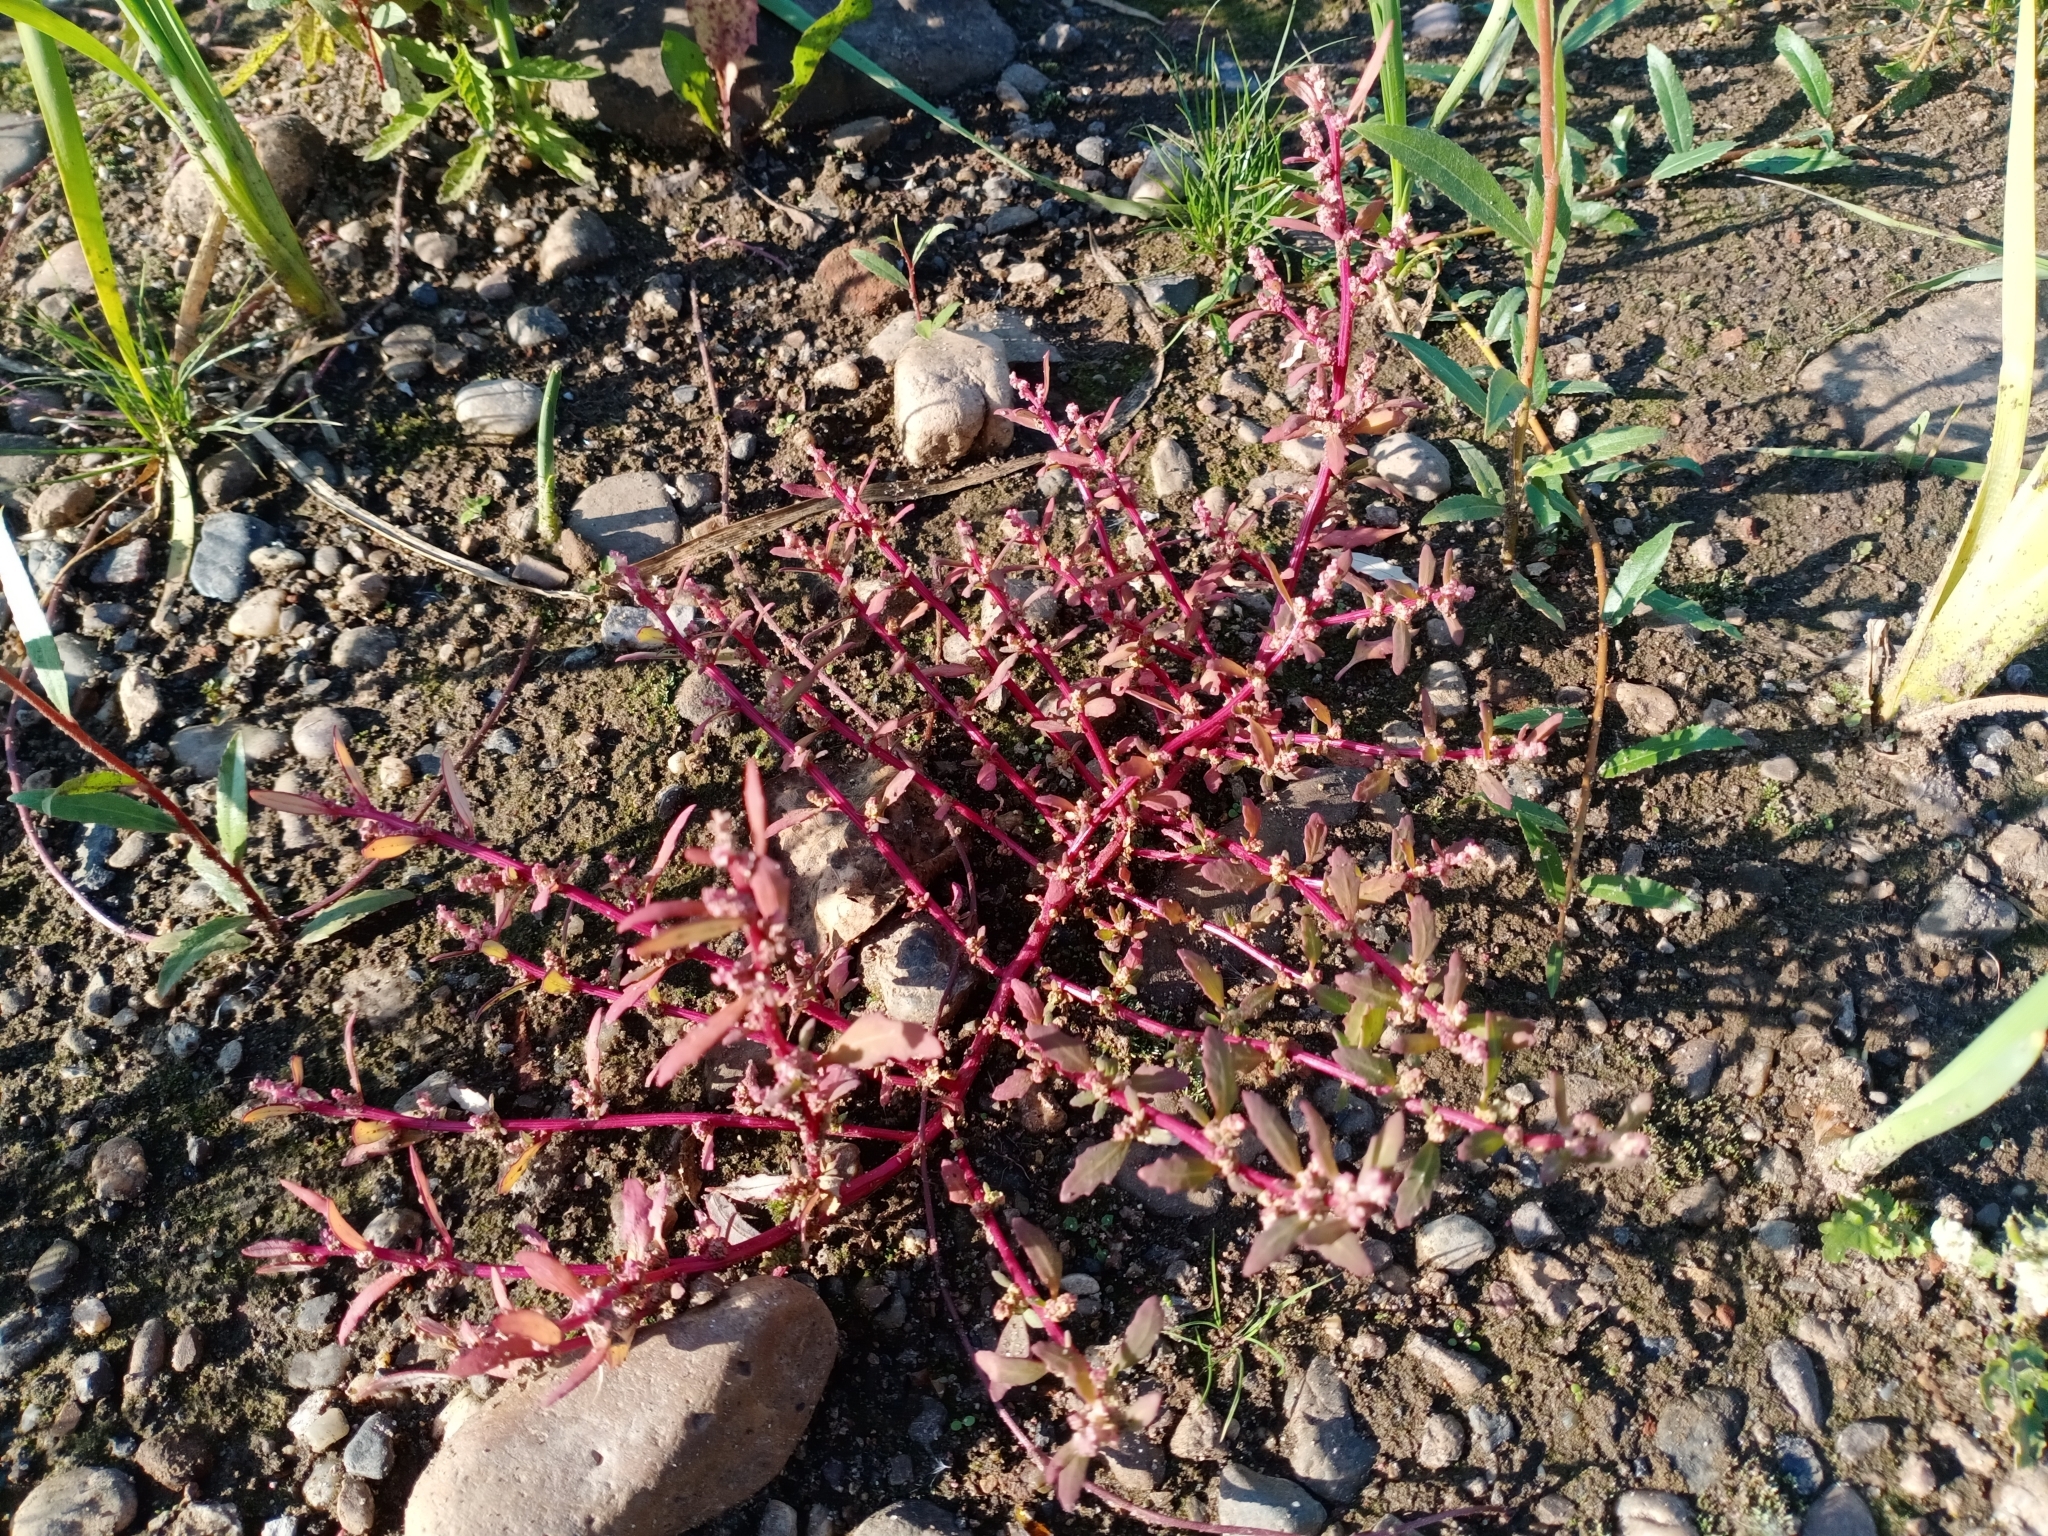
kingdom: Plantae
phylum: Tracheophyta
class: Magnoliopsida
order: Caryophyllales
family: Amaranthaceae
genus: Oxybasis
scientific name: Oxybasis glauca
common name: Glaucous goosefoot
